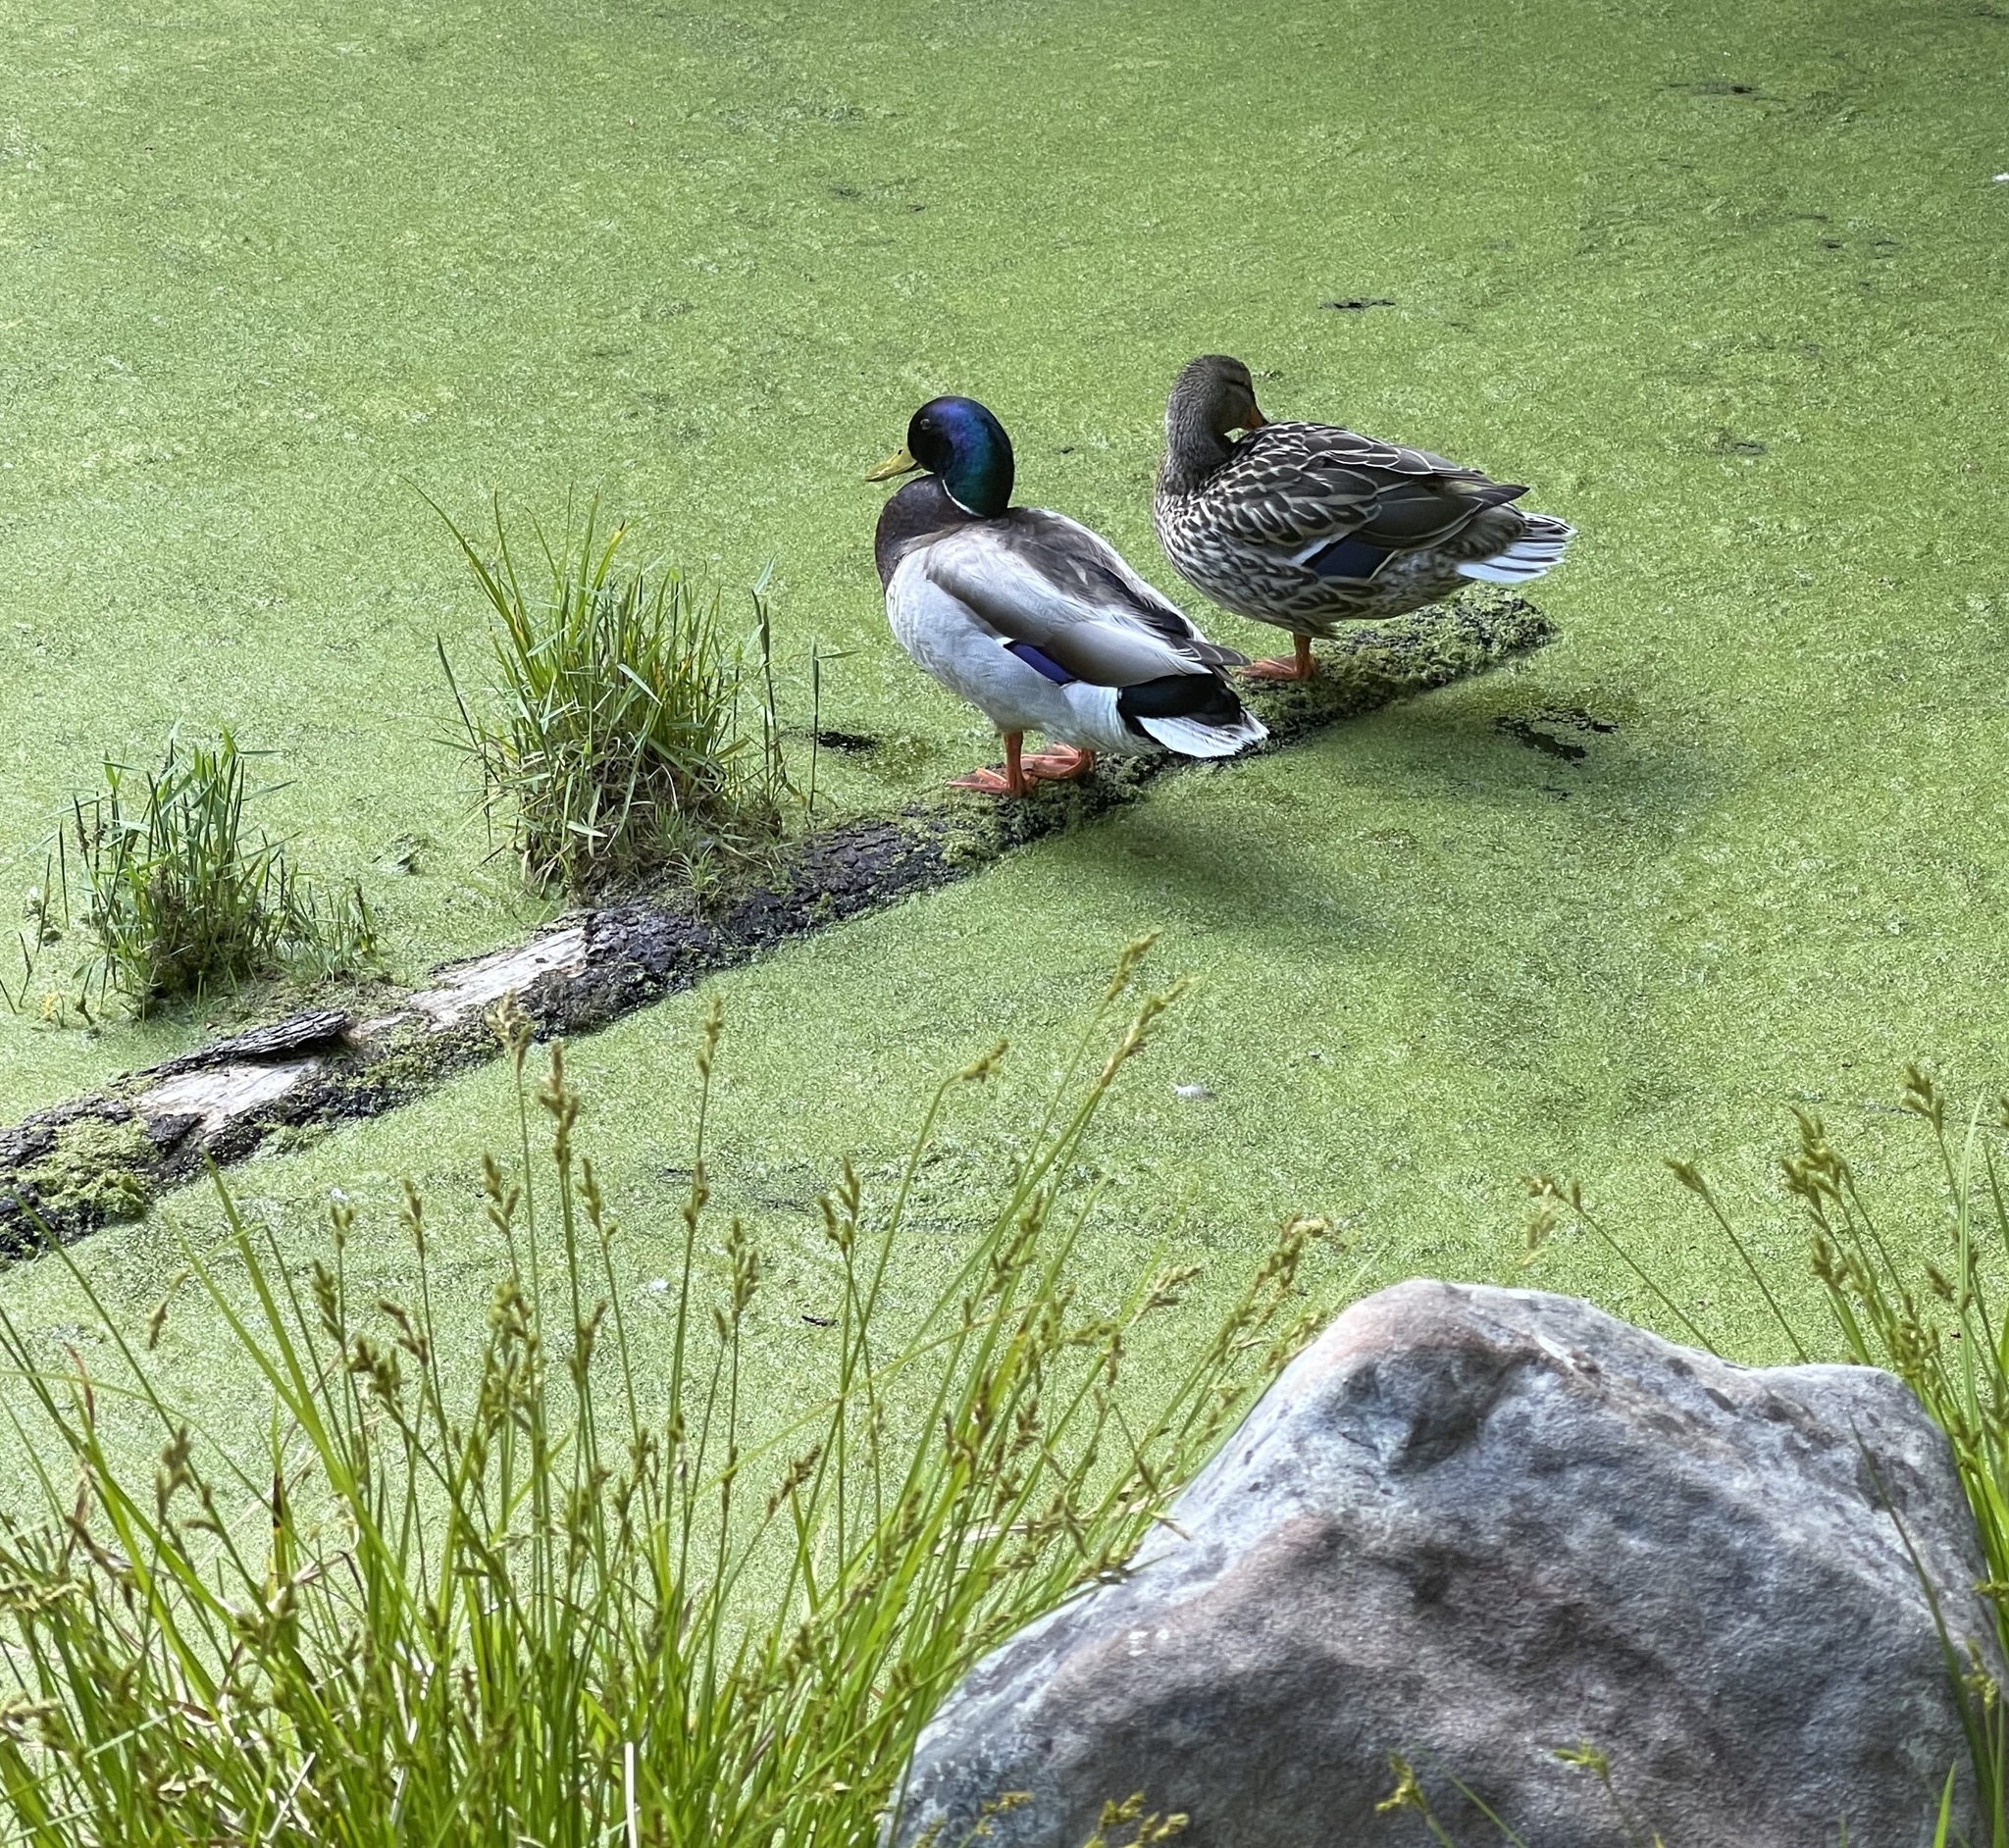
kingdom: Animalia
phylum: Chordata
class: Aves
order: Anseriformes
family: Anatidae
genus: Anas
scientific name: Anas platyrhynchos
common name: Mallard
